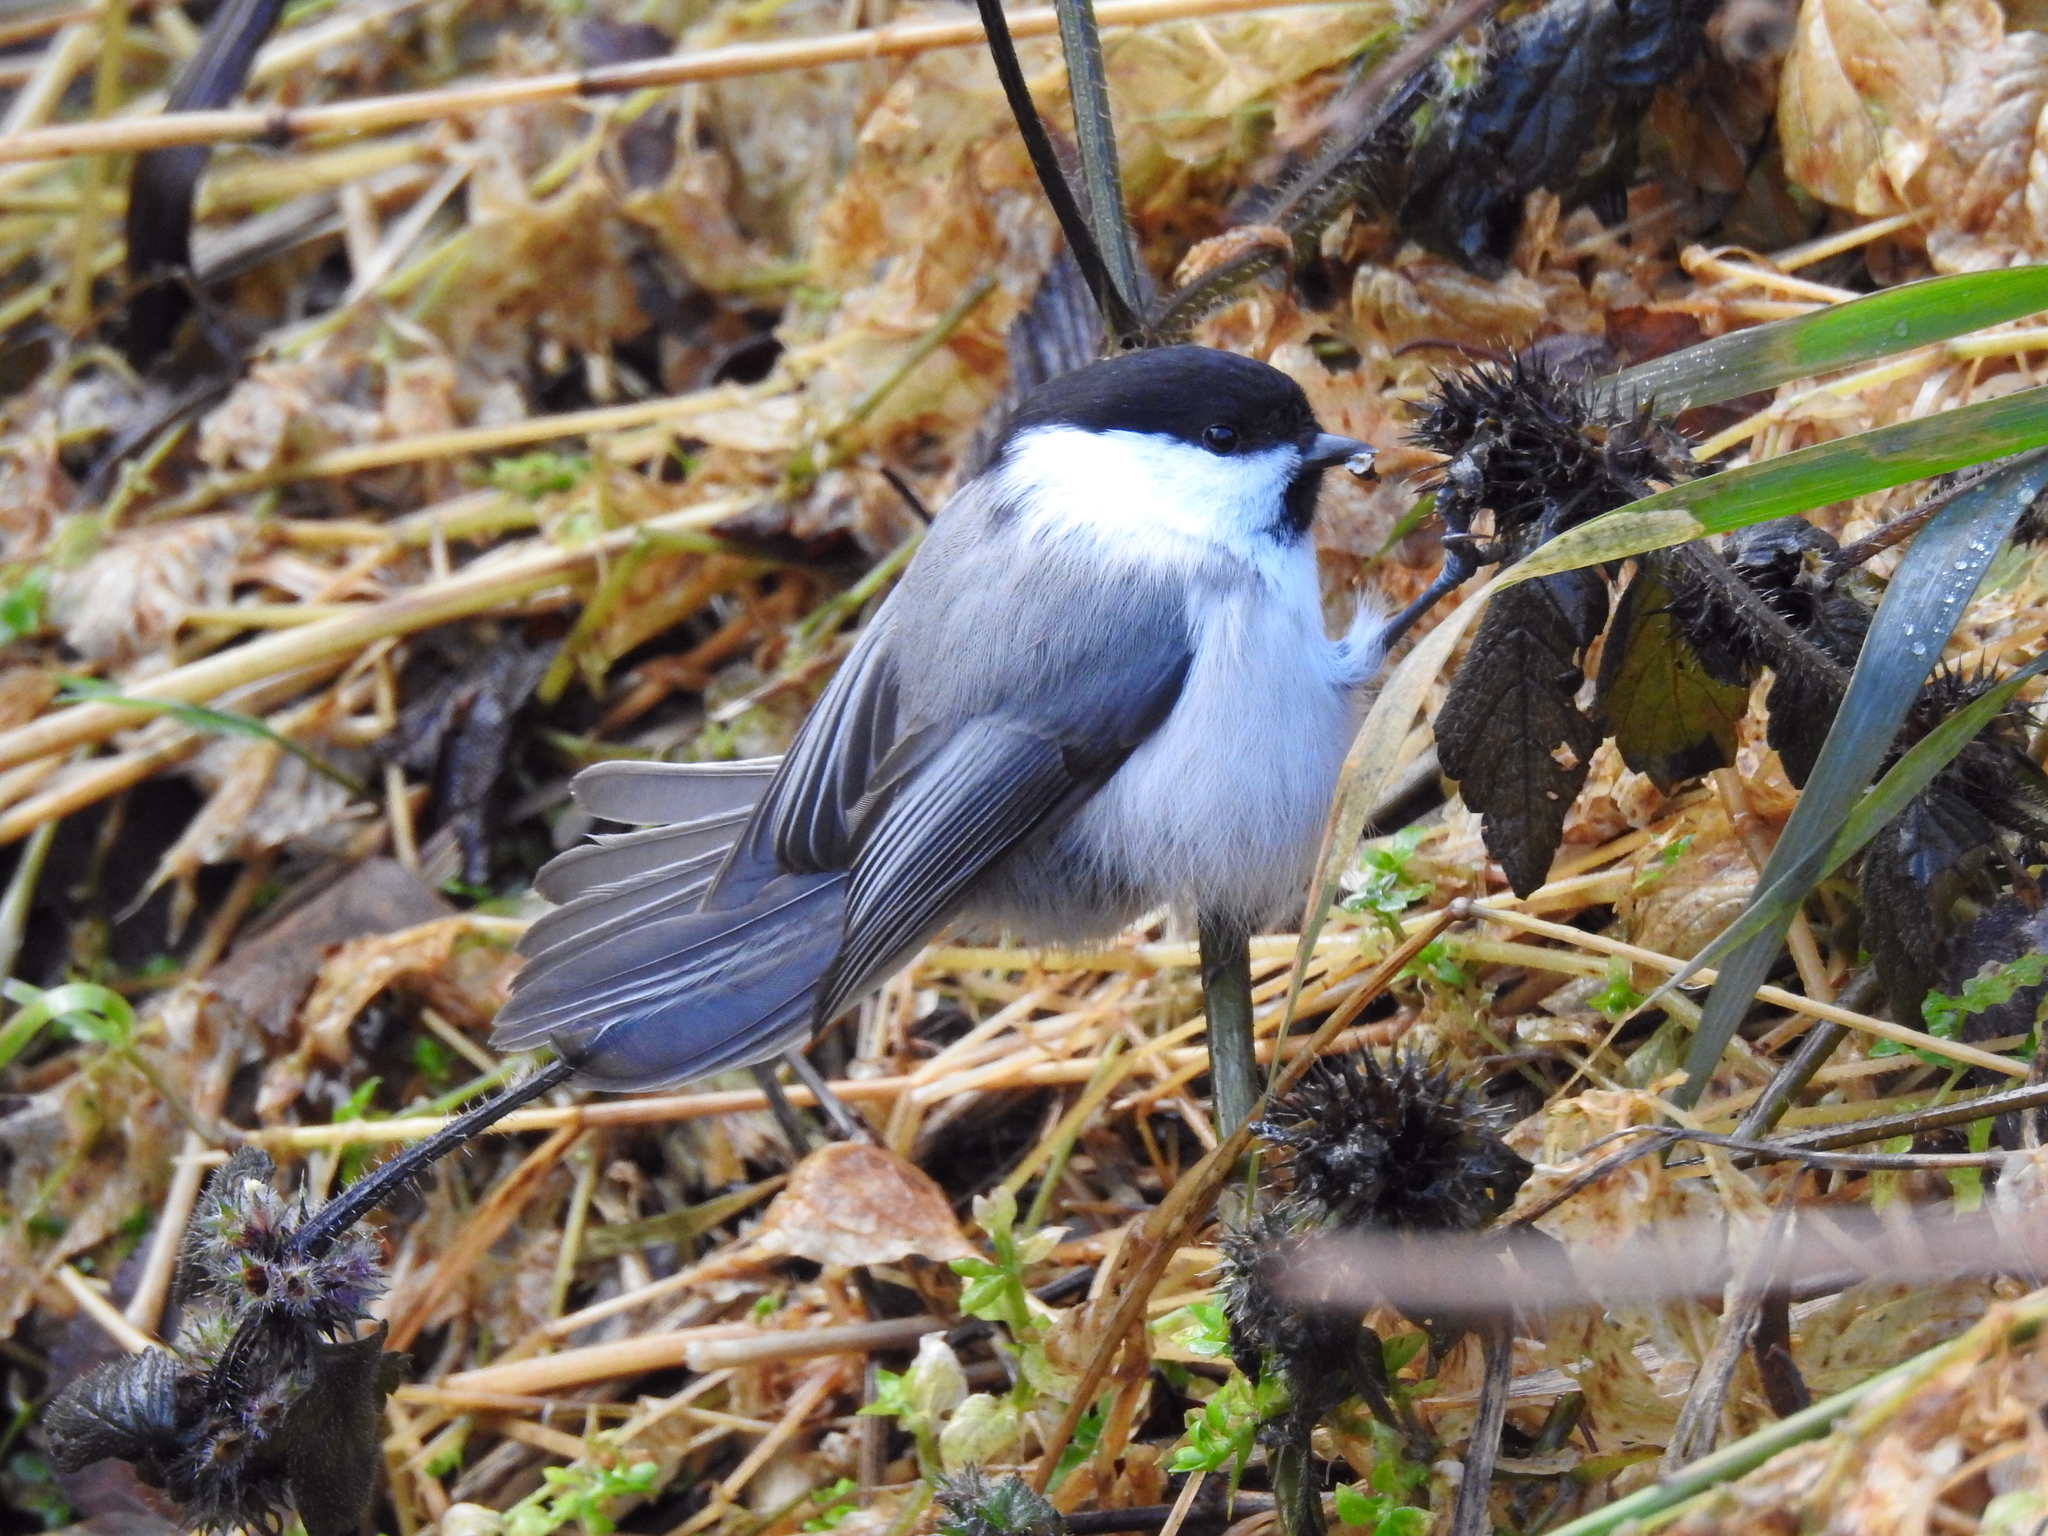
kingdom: Animalia
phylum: Chordata
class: Aves
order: Passeriformes
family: Paridae
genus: Poecile
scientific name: Poecile montanus
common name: Willow tit
